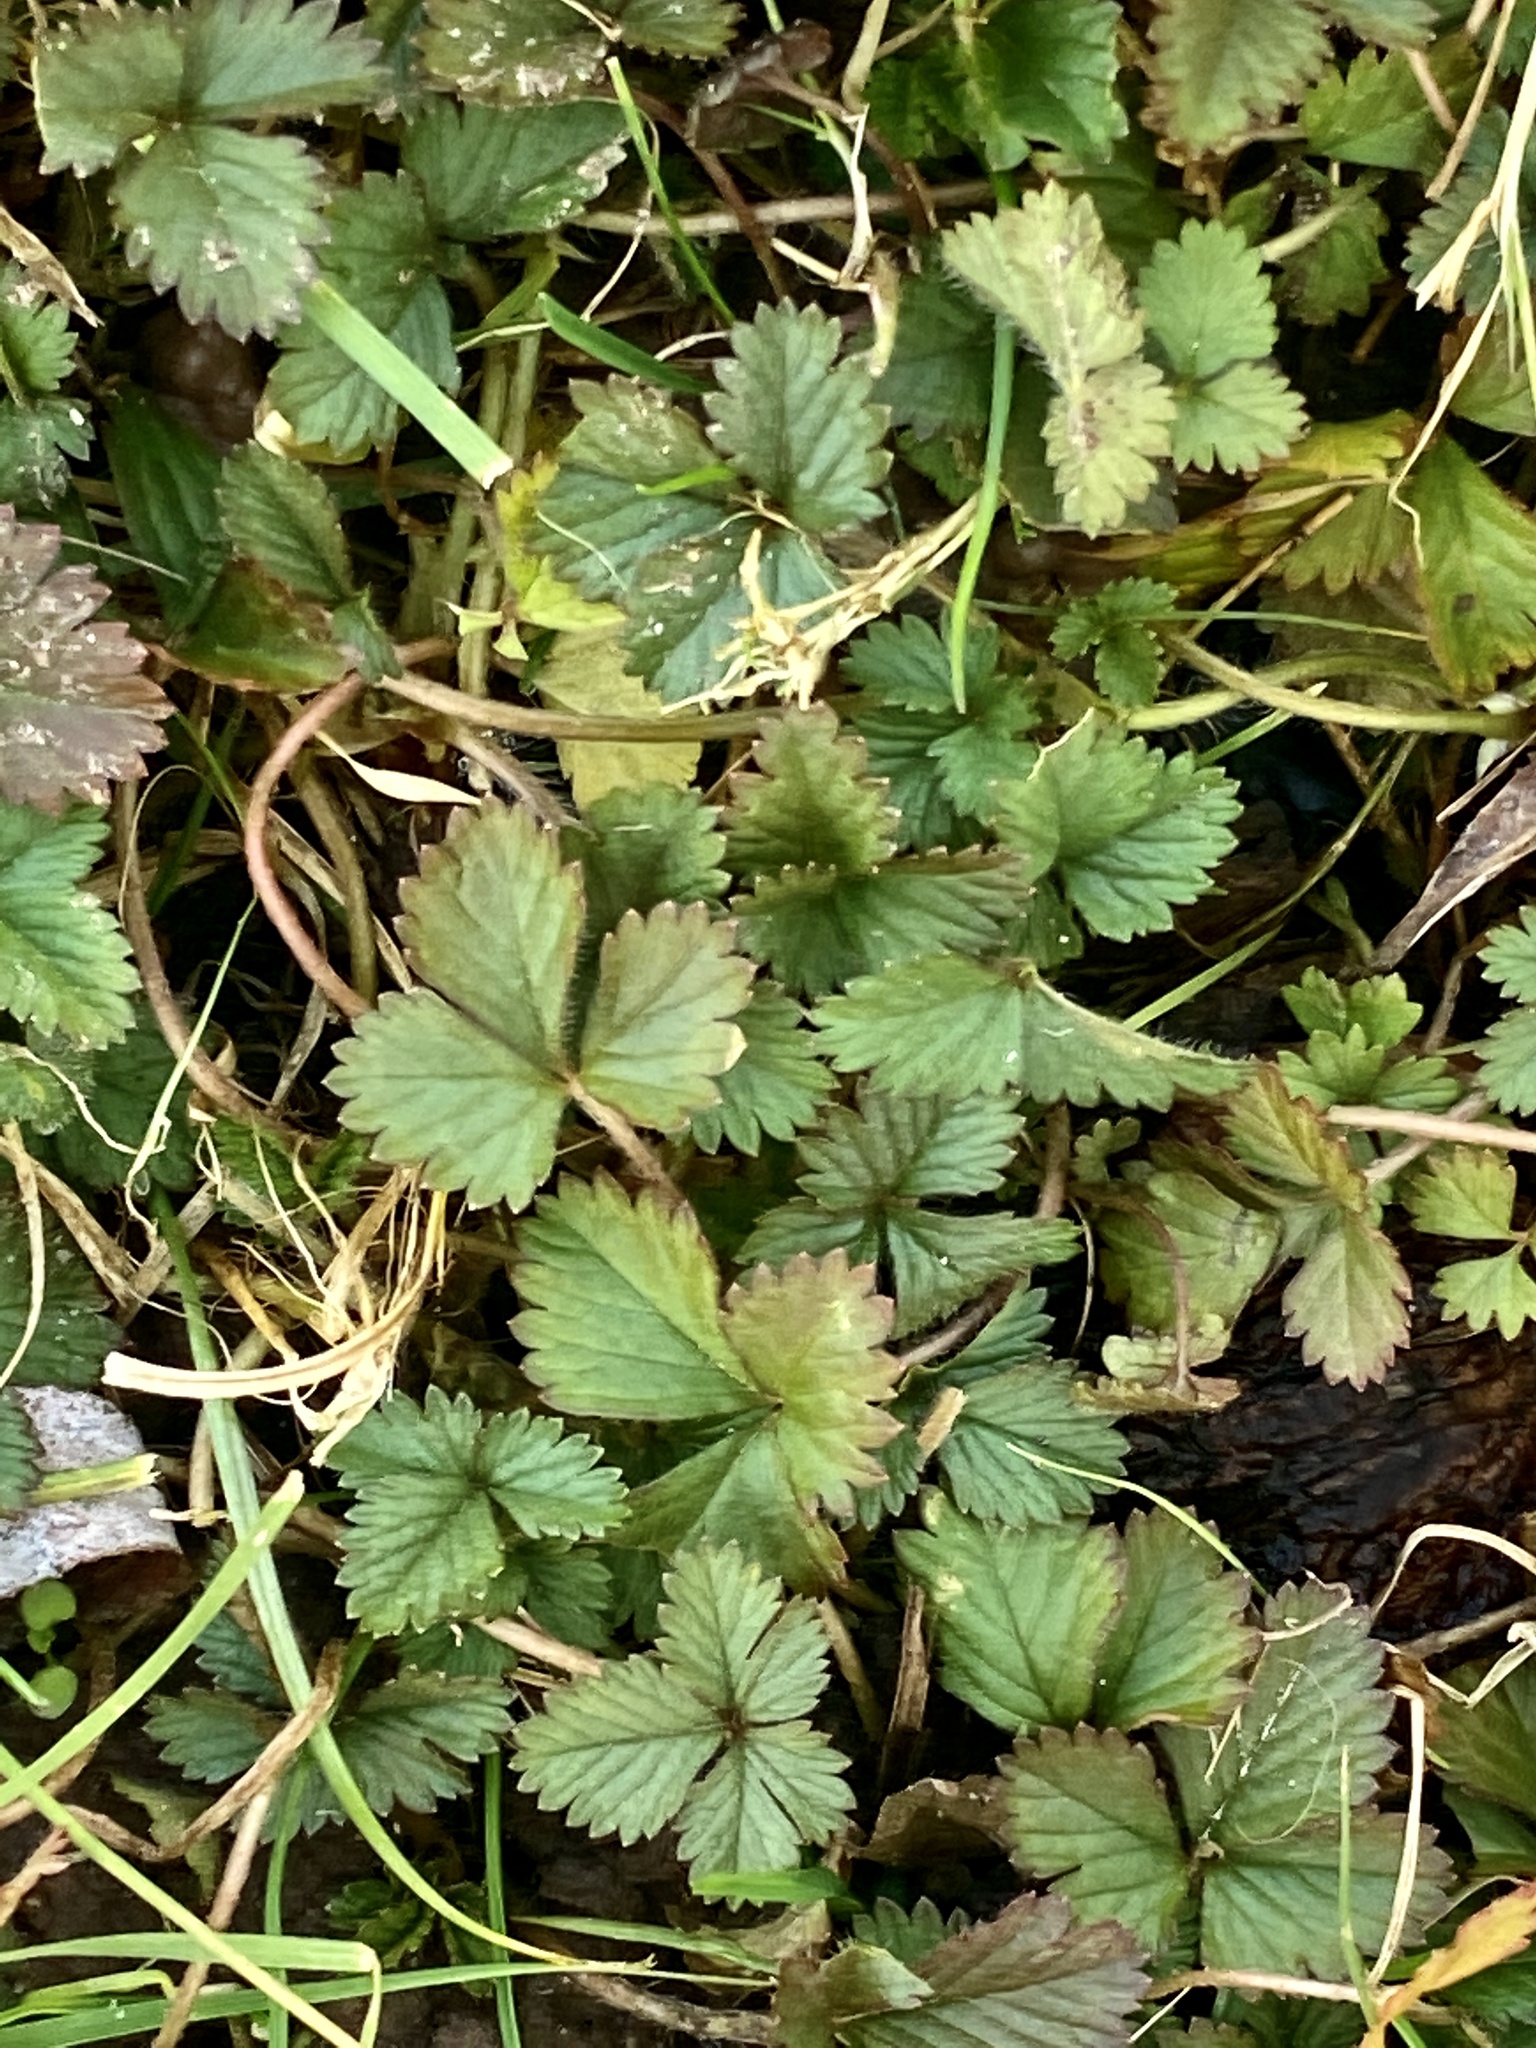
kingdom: Plantae
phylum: Tracheophyta
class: Magnoliopsida
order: Rosales
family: Rosaceae
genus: Potentilla
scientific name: Potentilla indica
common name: Yellow-flowered strawberry
